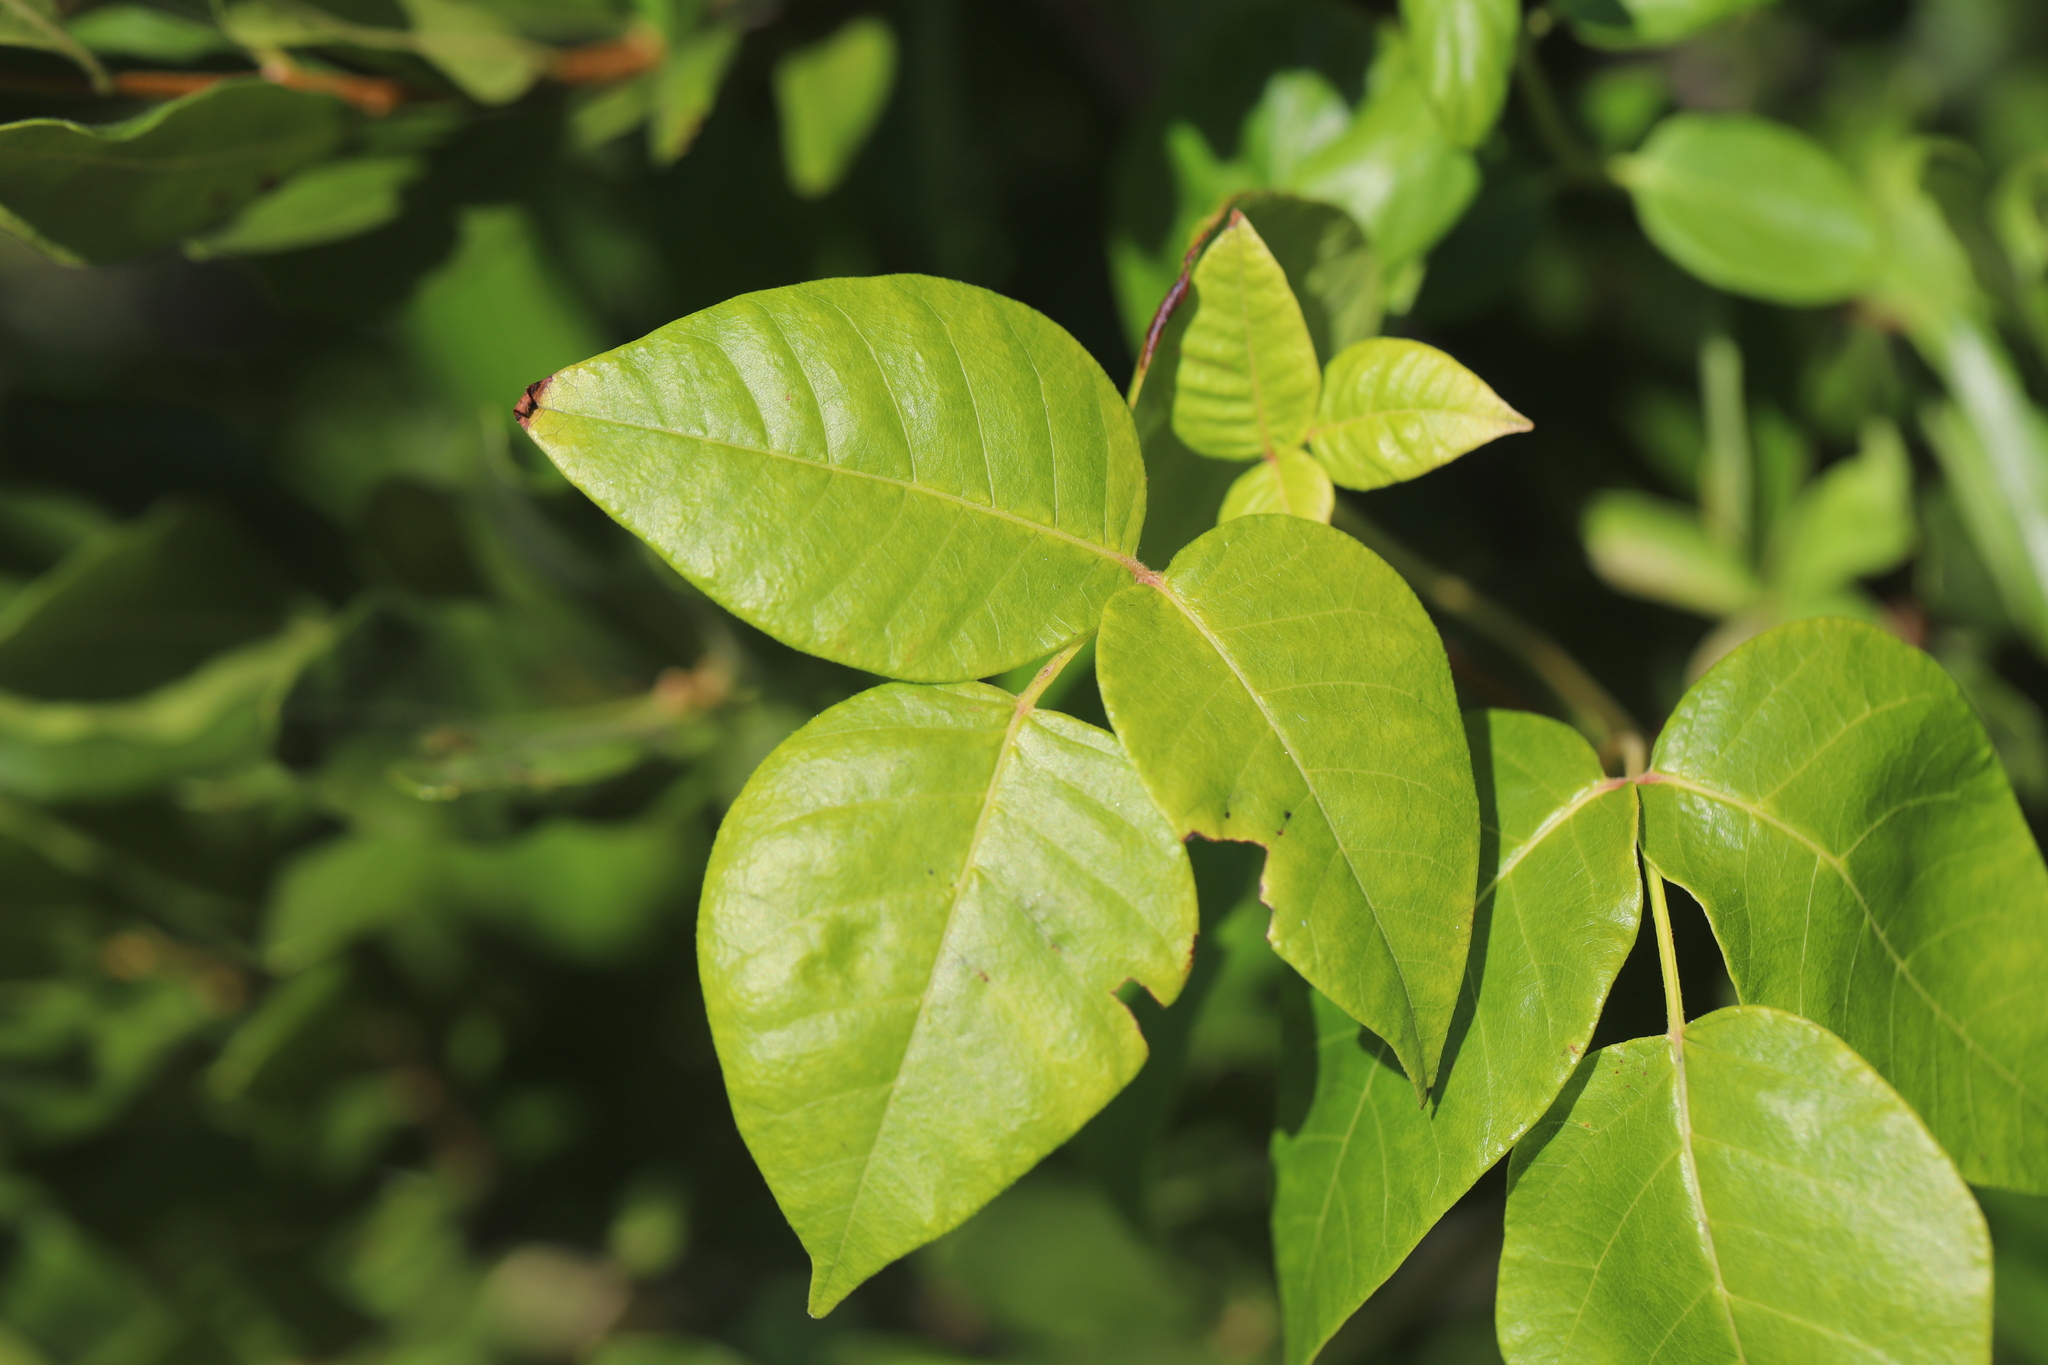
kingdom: Plantae
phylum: Tracheophyta
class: Magnoliopsida
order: Sapindales
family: Anacardiaceae
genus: Toxicodendron
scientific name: Toxicodendron radicans
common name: Poison ivy
